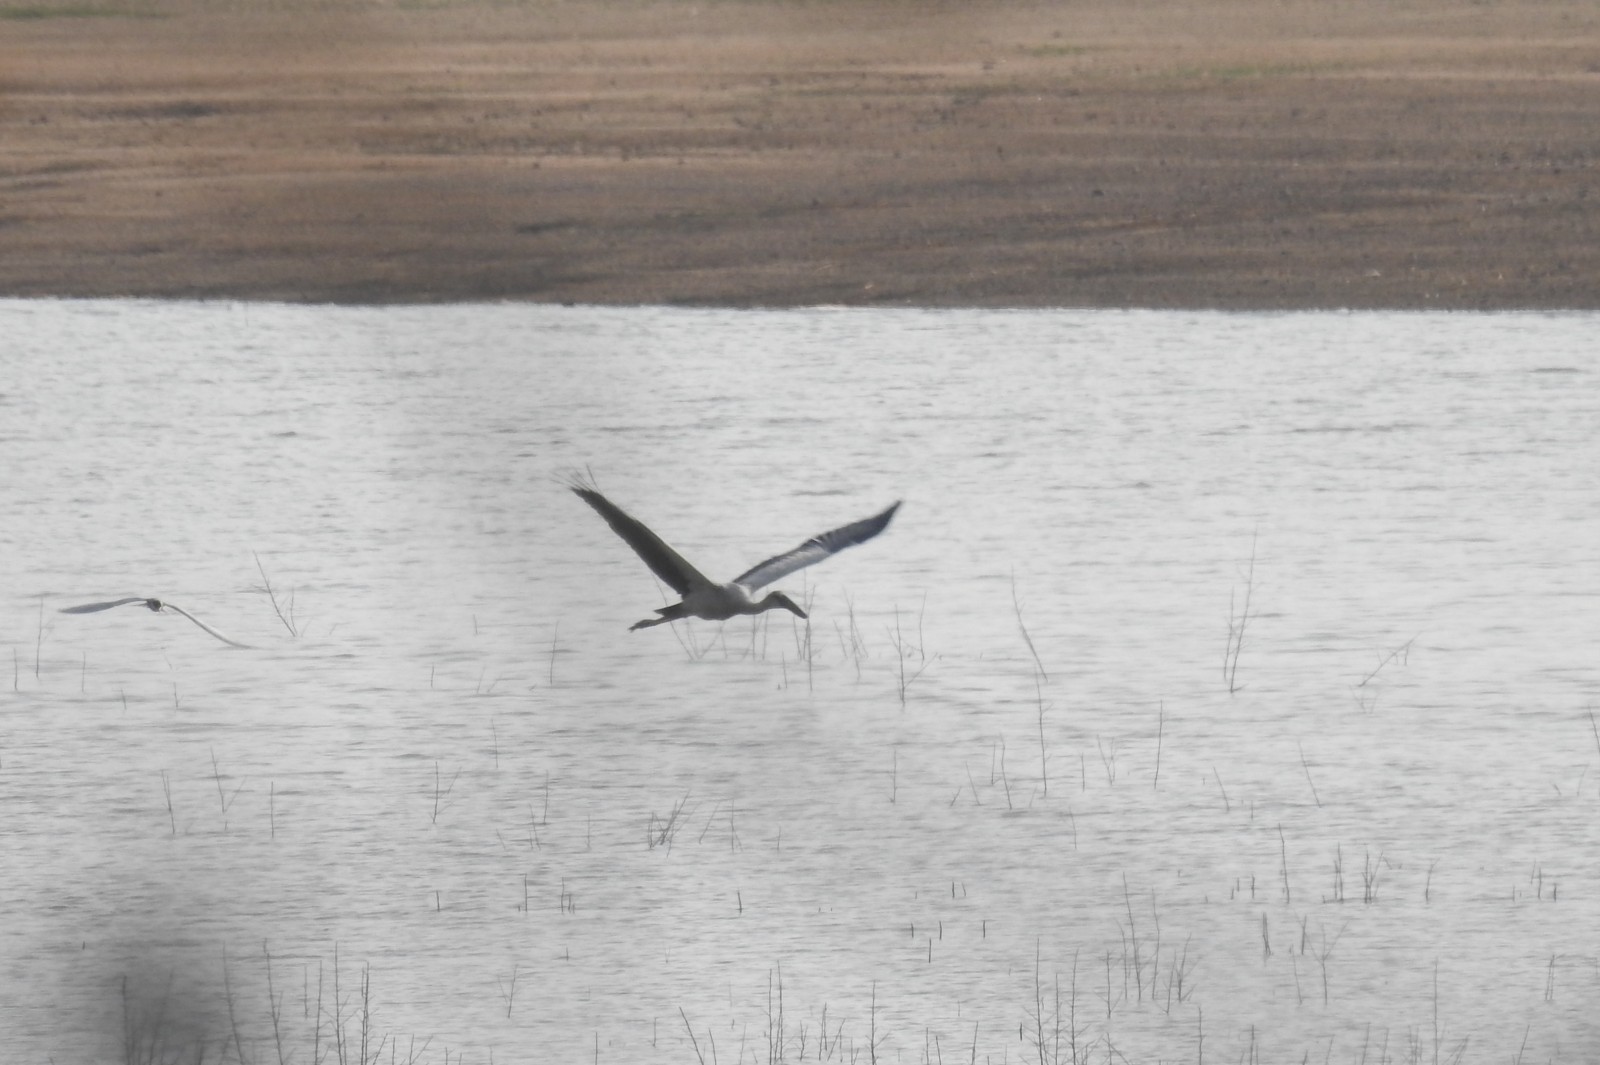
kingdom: Animalia
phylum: Chordata
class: Aves
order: Ciconiiformes
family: Ciconiidae
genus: Anastomus
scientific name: Anastomus oscitans
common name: Asian openbill
